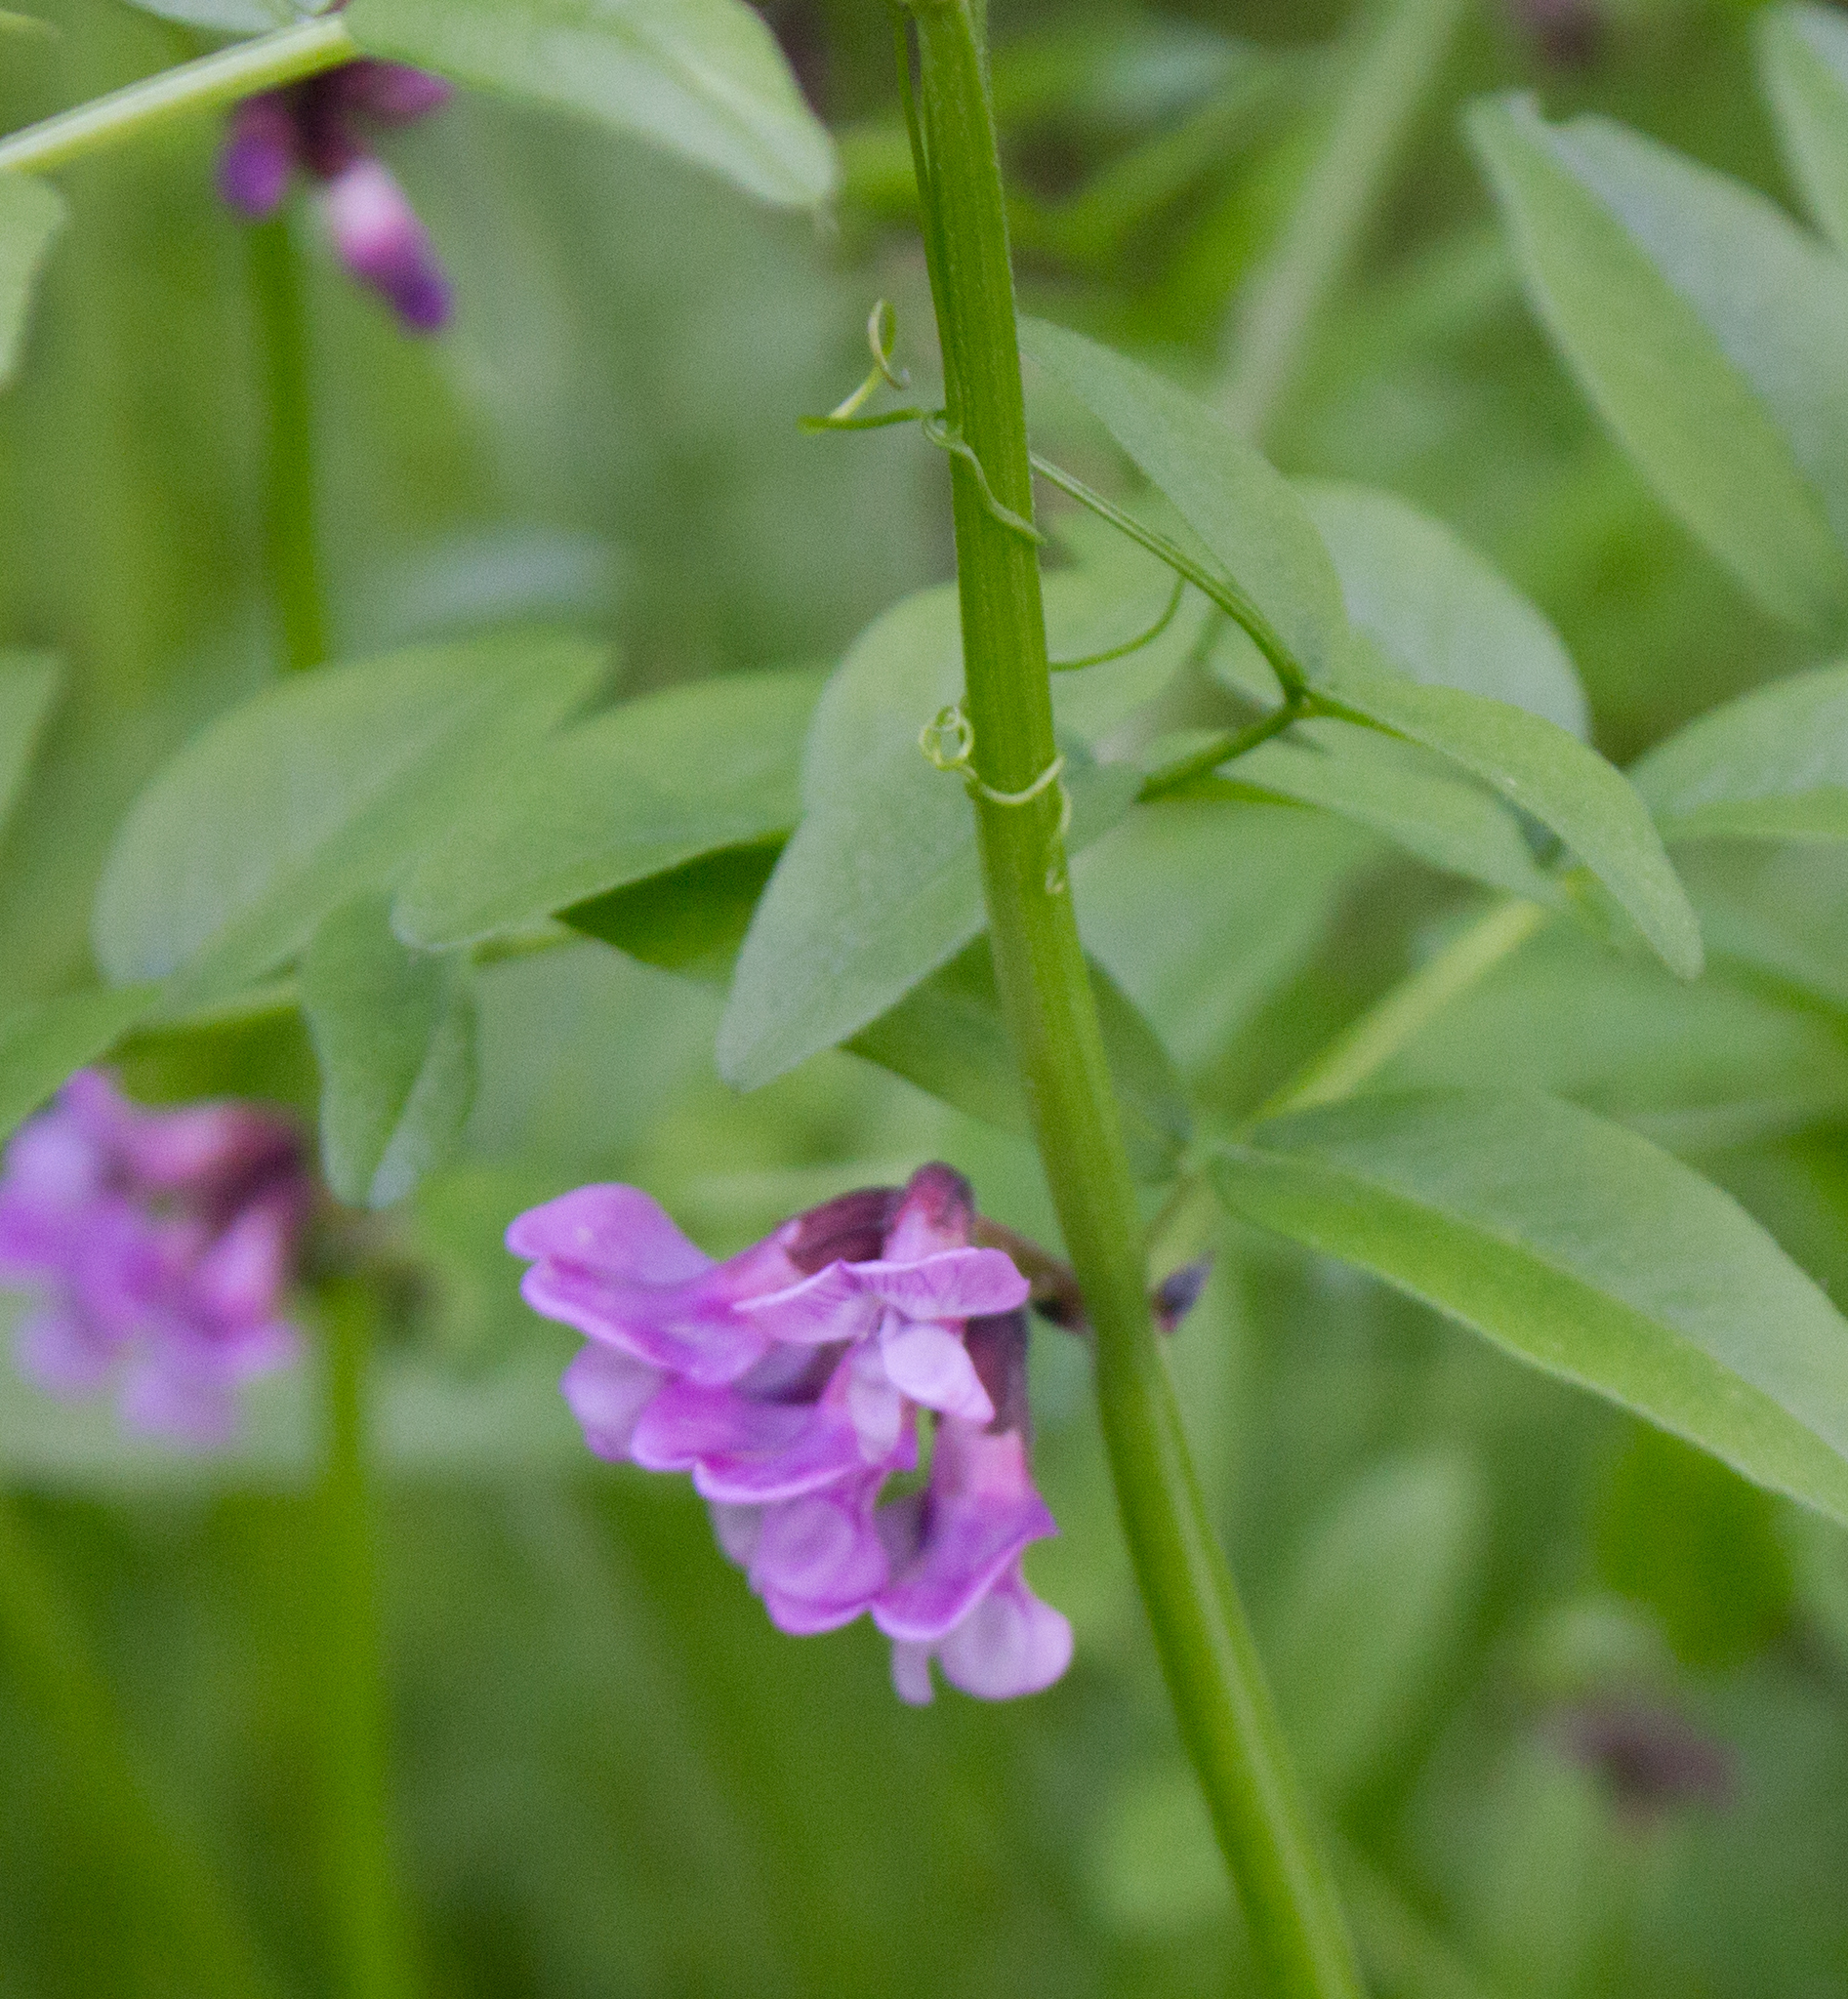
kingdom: Plantae
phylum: Tracheophyta
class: Magnoliopsida
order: Fabales
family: Fabaceae
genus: Vicia
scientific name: Vicia sepium
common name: Bush vetch
